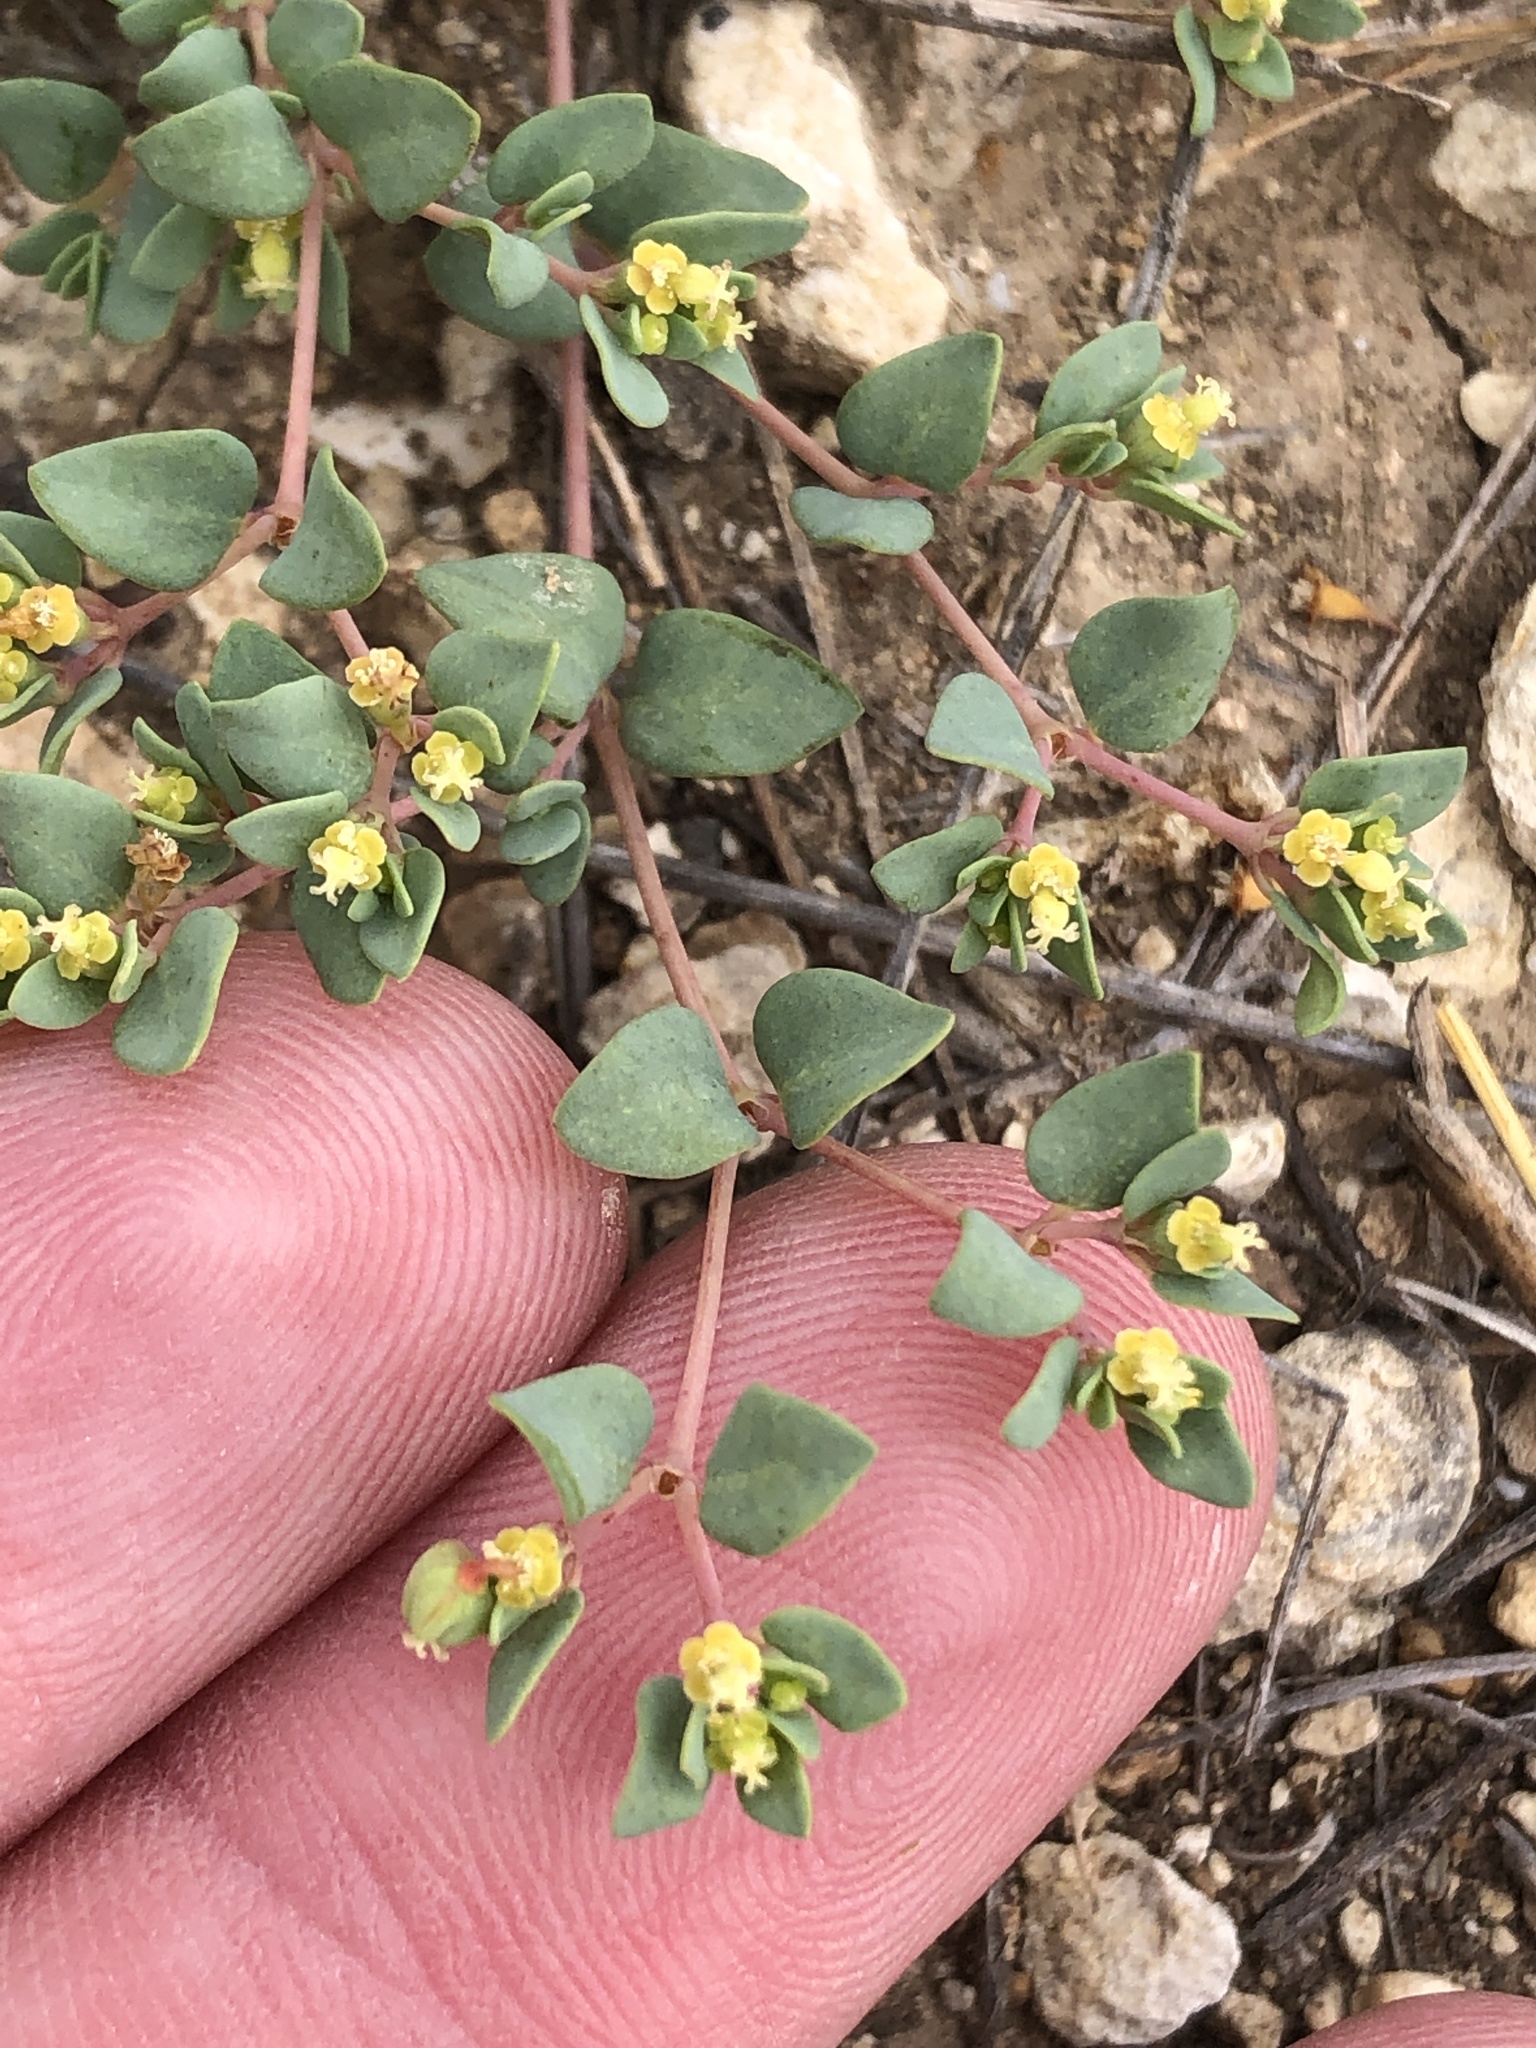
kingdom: Plantae
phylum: Tracheophyta
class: Magnoliopsida
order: Malpighiales
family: Euphorbiaceae
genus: Euphorbia
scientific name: Euphorbia fendleri
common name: Fendler's euphorbia
